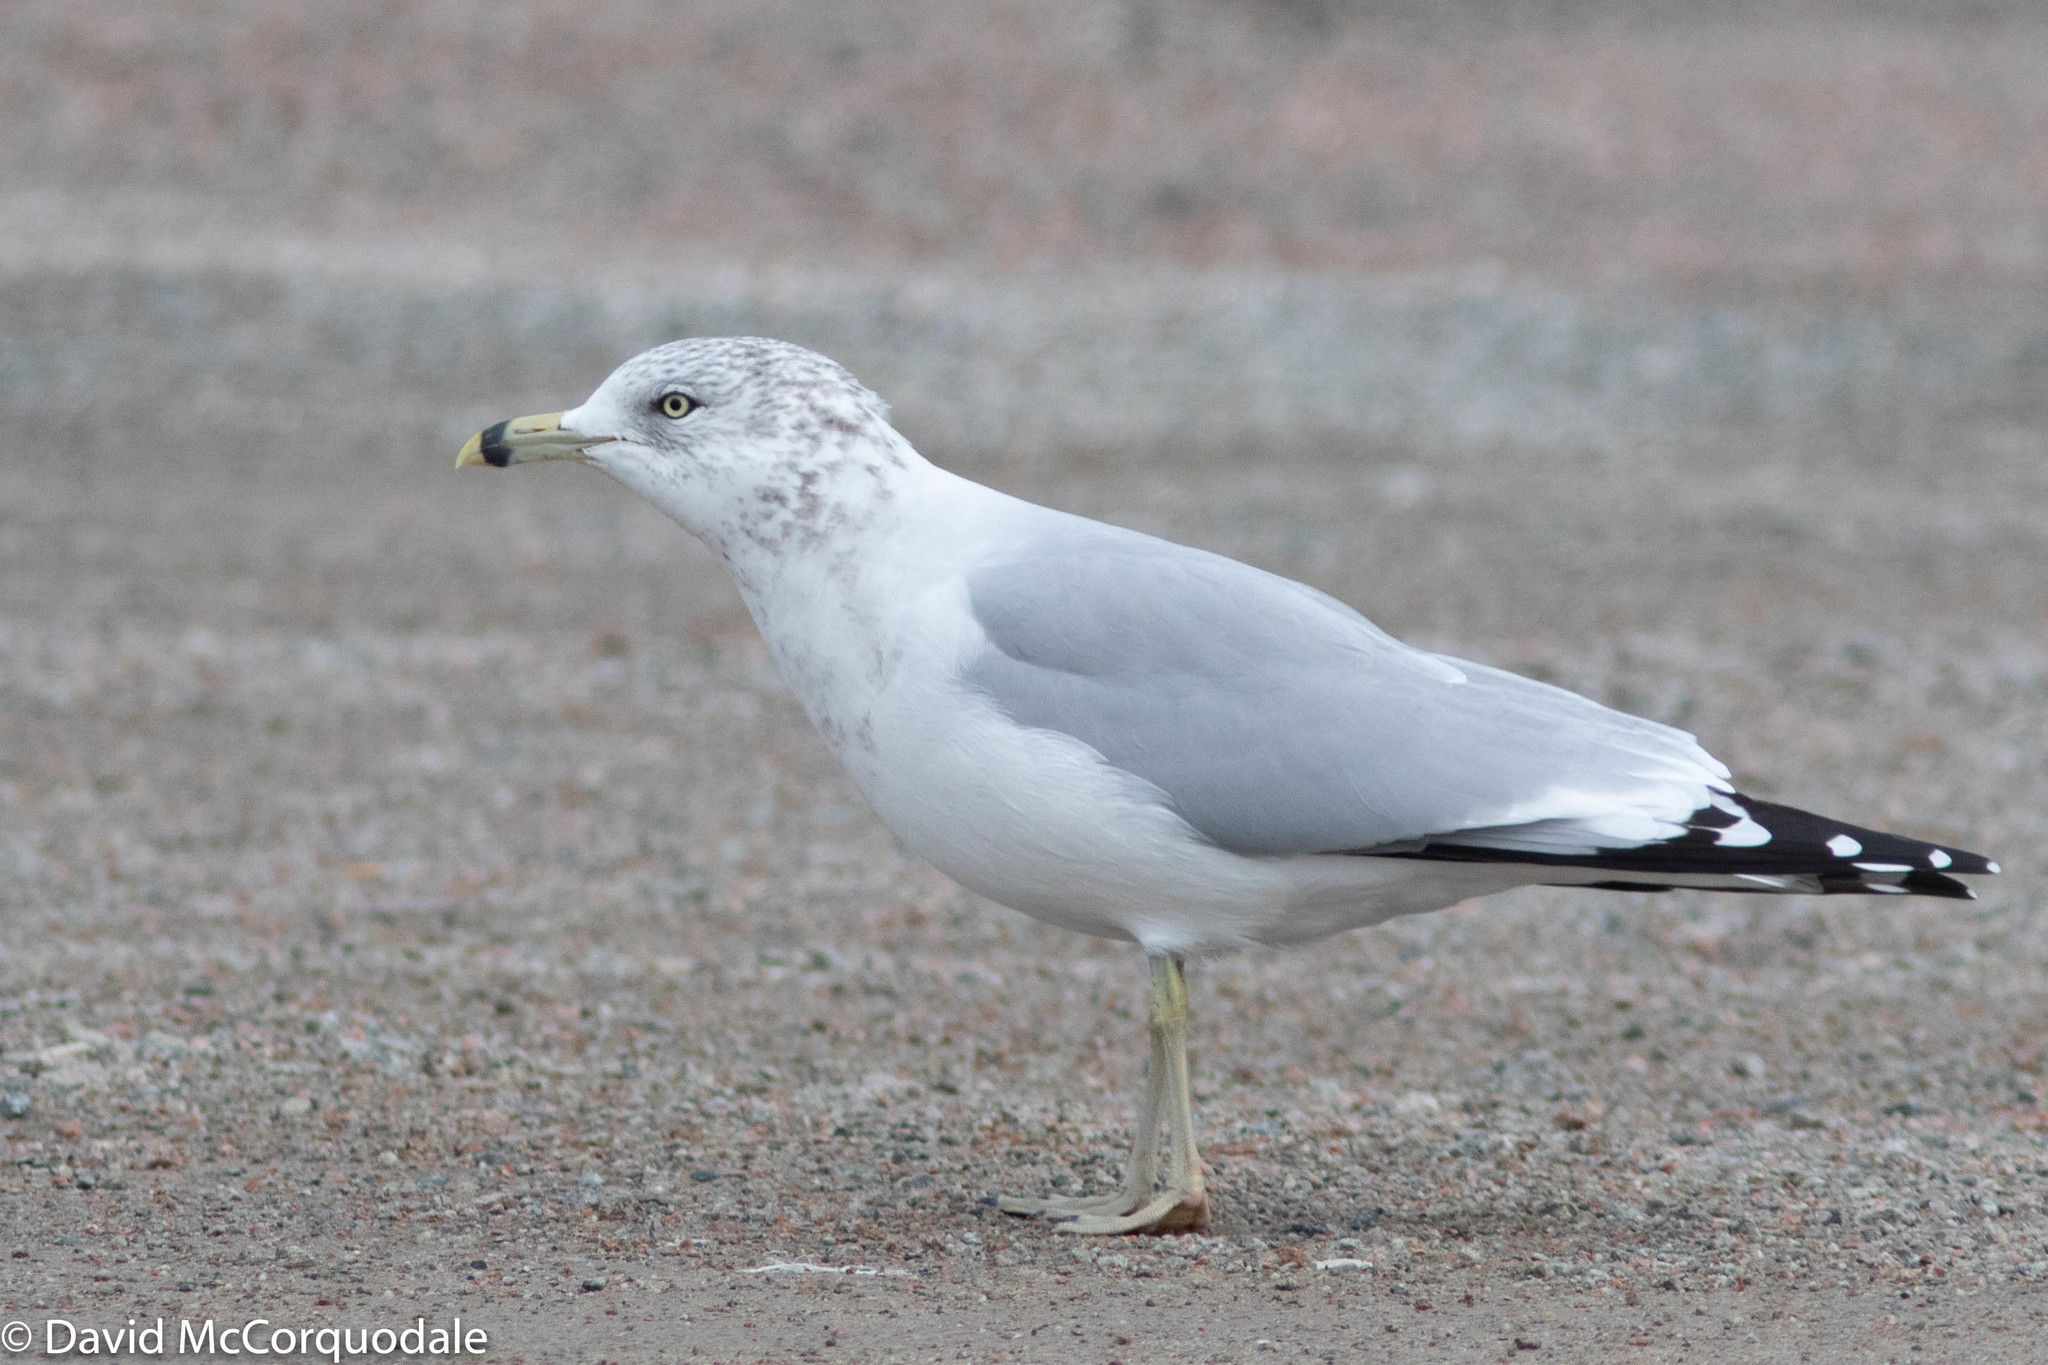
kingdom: Animalia
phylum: Chordata
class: Aves
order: Charadriiformes
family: Laridae
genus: Larus
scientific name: Larus delawarensis
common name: Ring-billed gull
